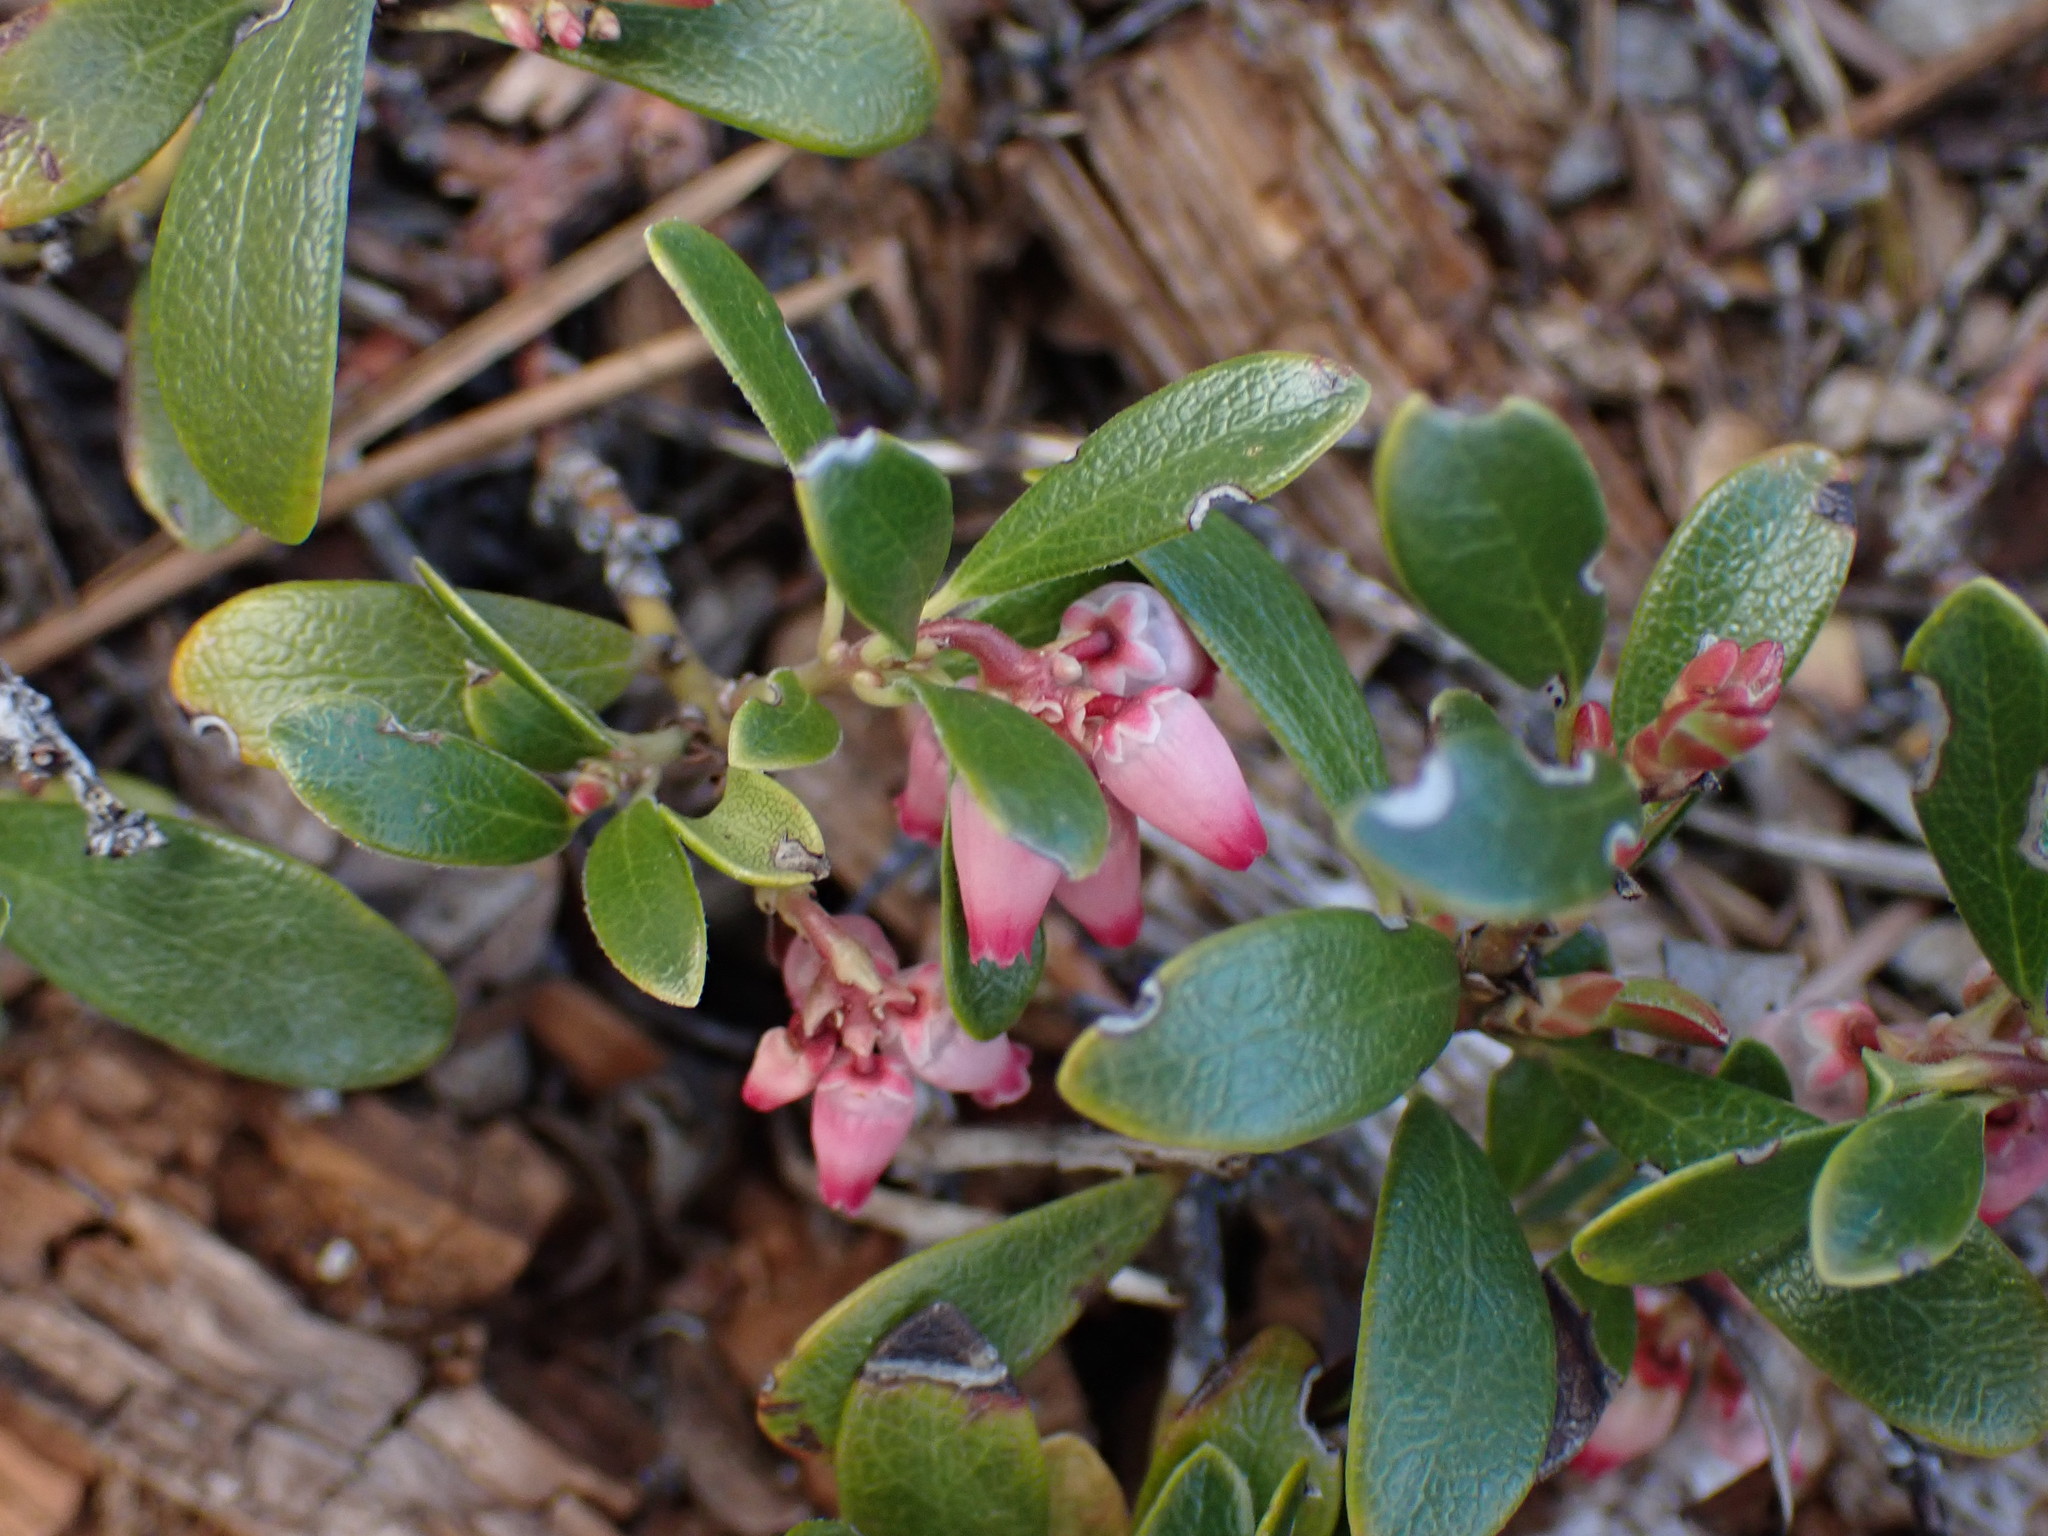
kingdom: Plantae
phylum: Tracheophyta
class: Magnoliopsida
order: Ericales
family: Ericaceae
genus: Arctostaphylos
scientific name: Arctostaphylos uva-ursi
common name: Bearberry
